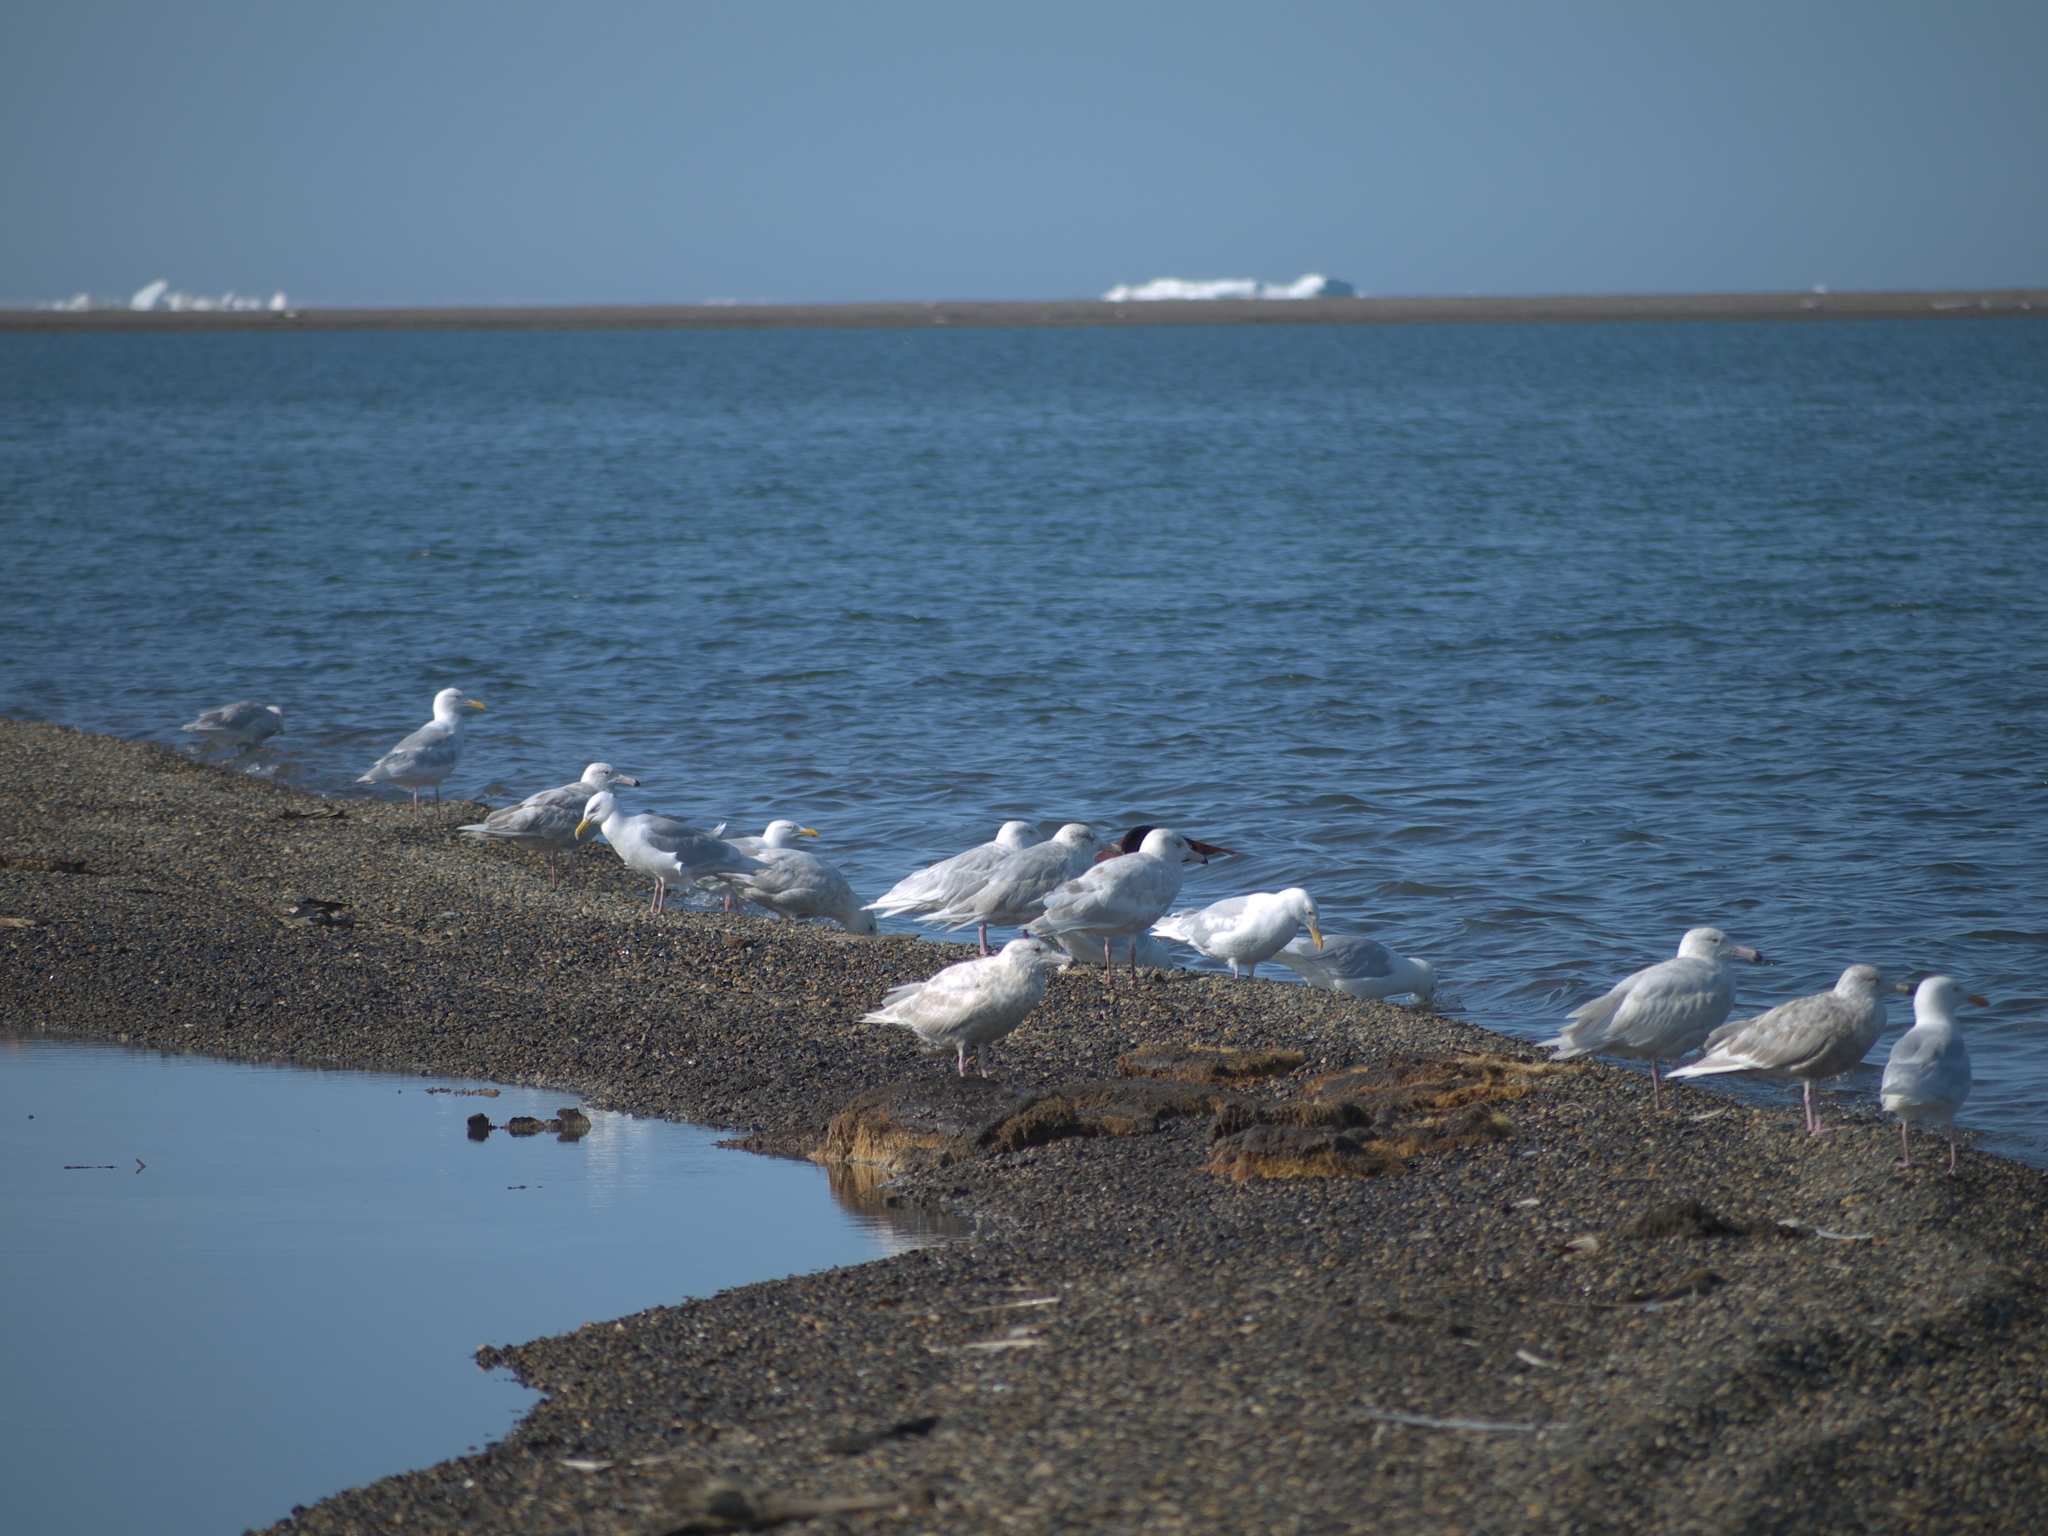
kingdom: Animalia
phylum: Chordata
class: Aves
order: Charadriiformes
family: Laridae
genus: Larus
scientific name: Larus hyperboreus
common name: Glaucous gull
